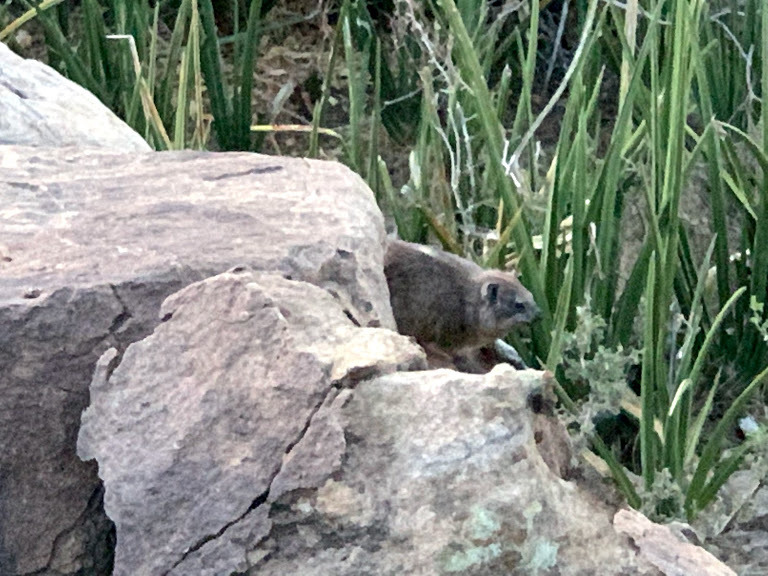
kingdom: Animalia
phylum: Chordata
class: Mammalia
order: Hyracoidea
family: Procaviidae
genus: Procavia
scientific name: Procavia capensis
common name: Rock hyrax
